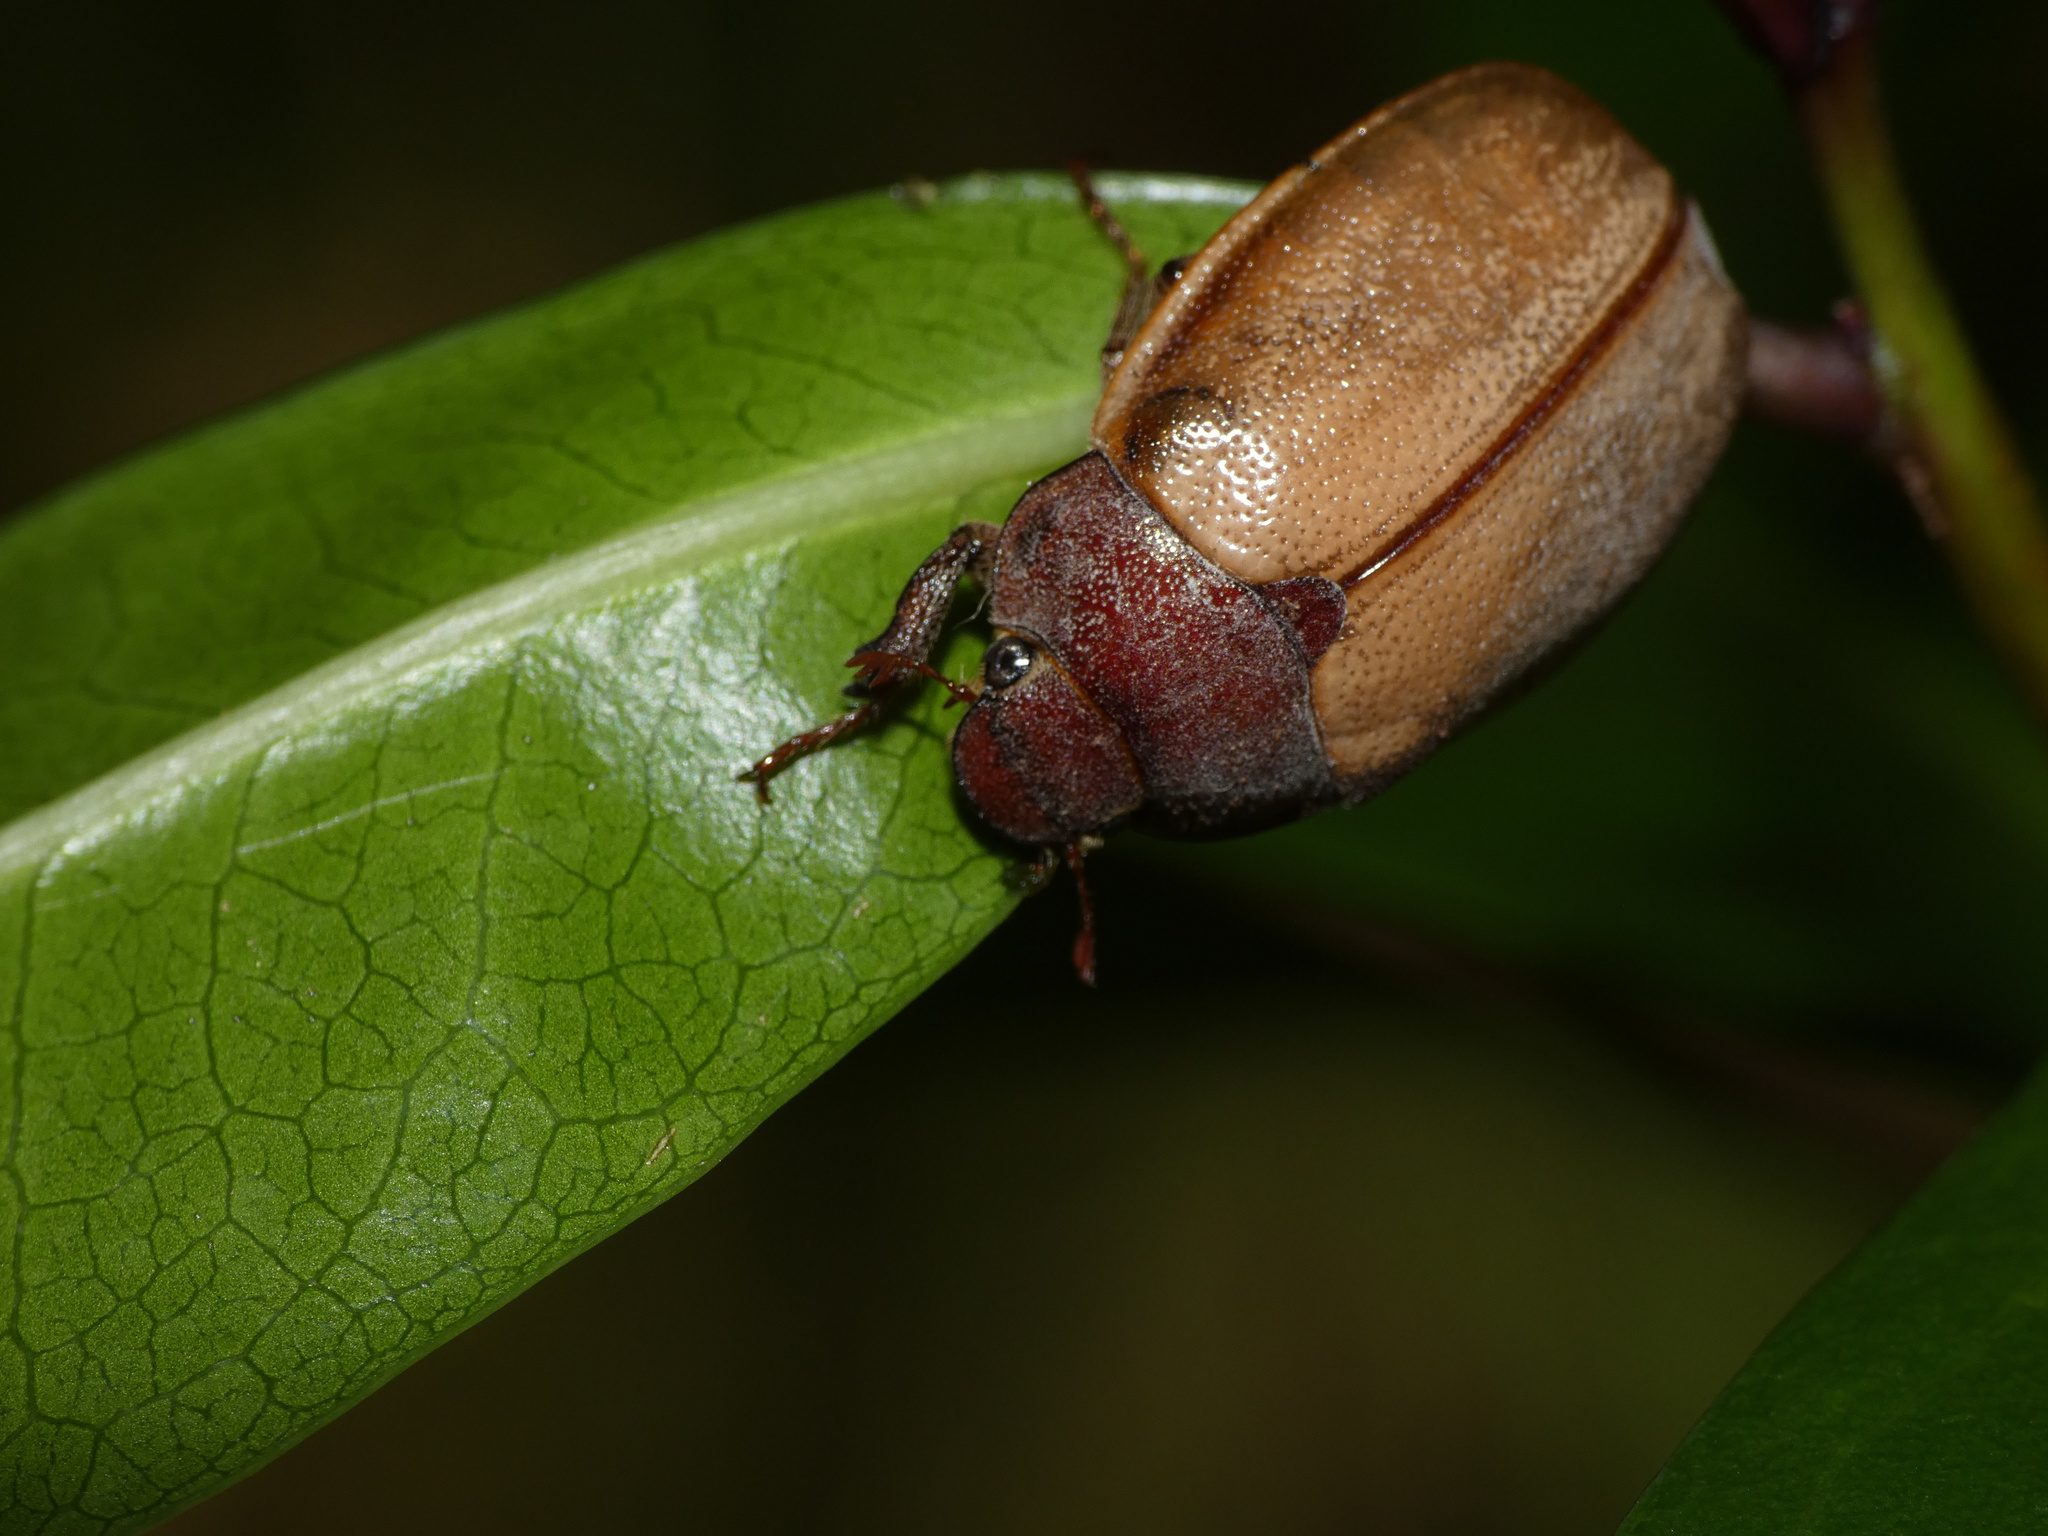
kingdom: Animalia
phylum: Arthropoda
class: Insecta
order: Coleoptera
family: Scarabaeidae
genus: Pegylis
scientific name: Pegylis sommeri
